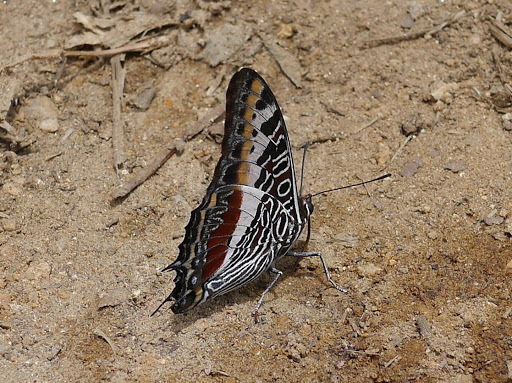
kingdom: Animalia
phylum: Arthropoda
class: Insecta
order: Lepidoptera
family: Nymphalidae
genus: Charaxes
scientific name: Charaxes castor
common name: Giant charaxes
